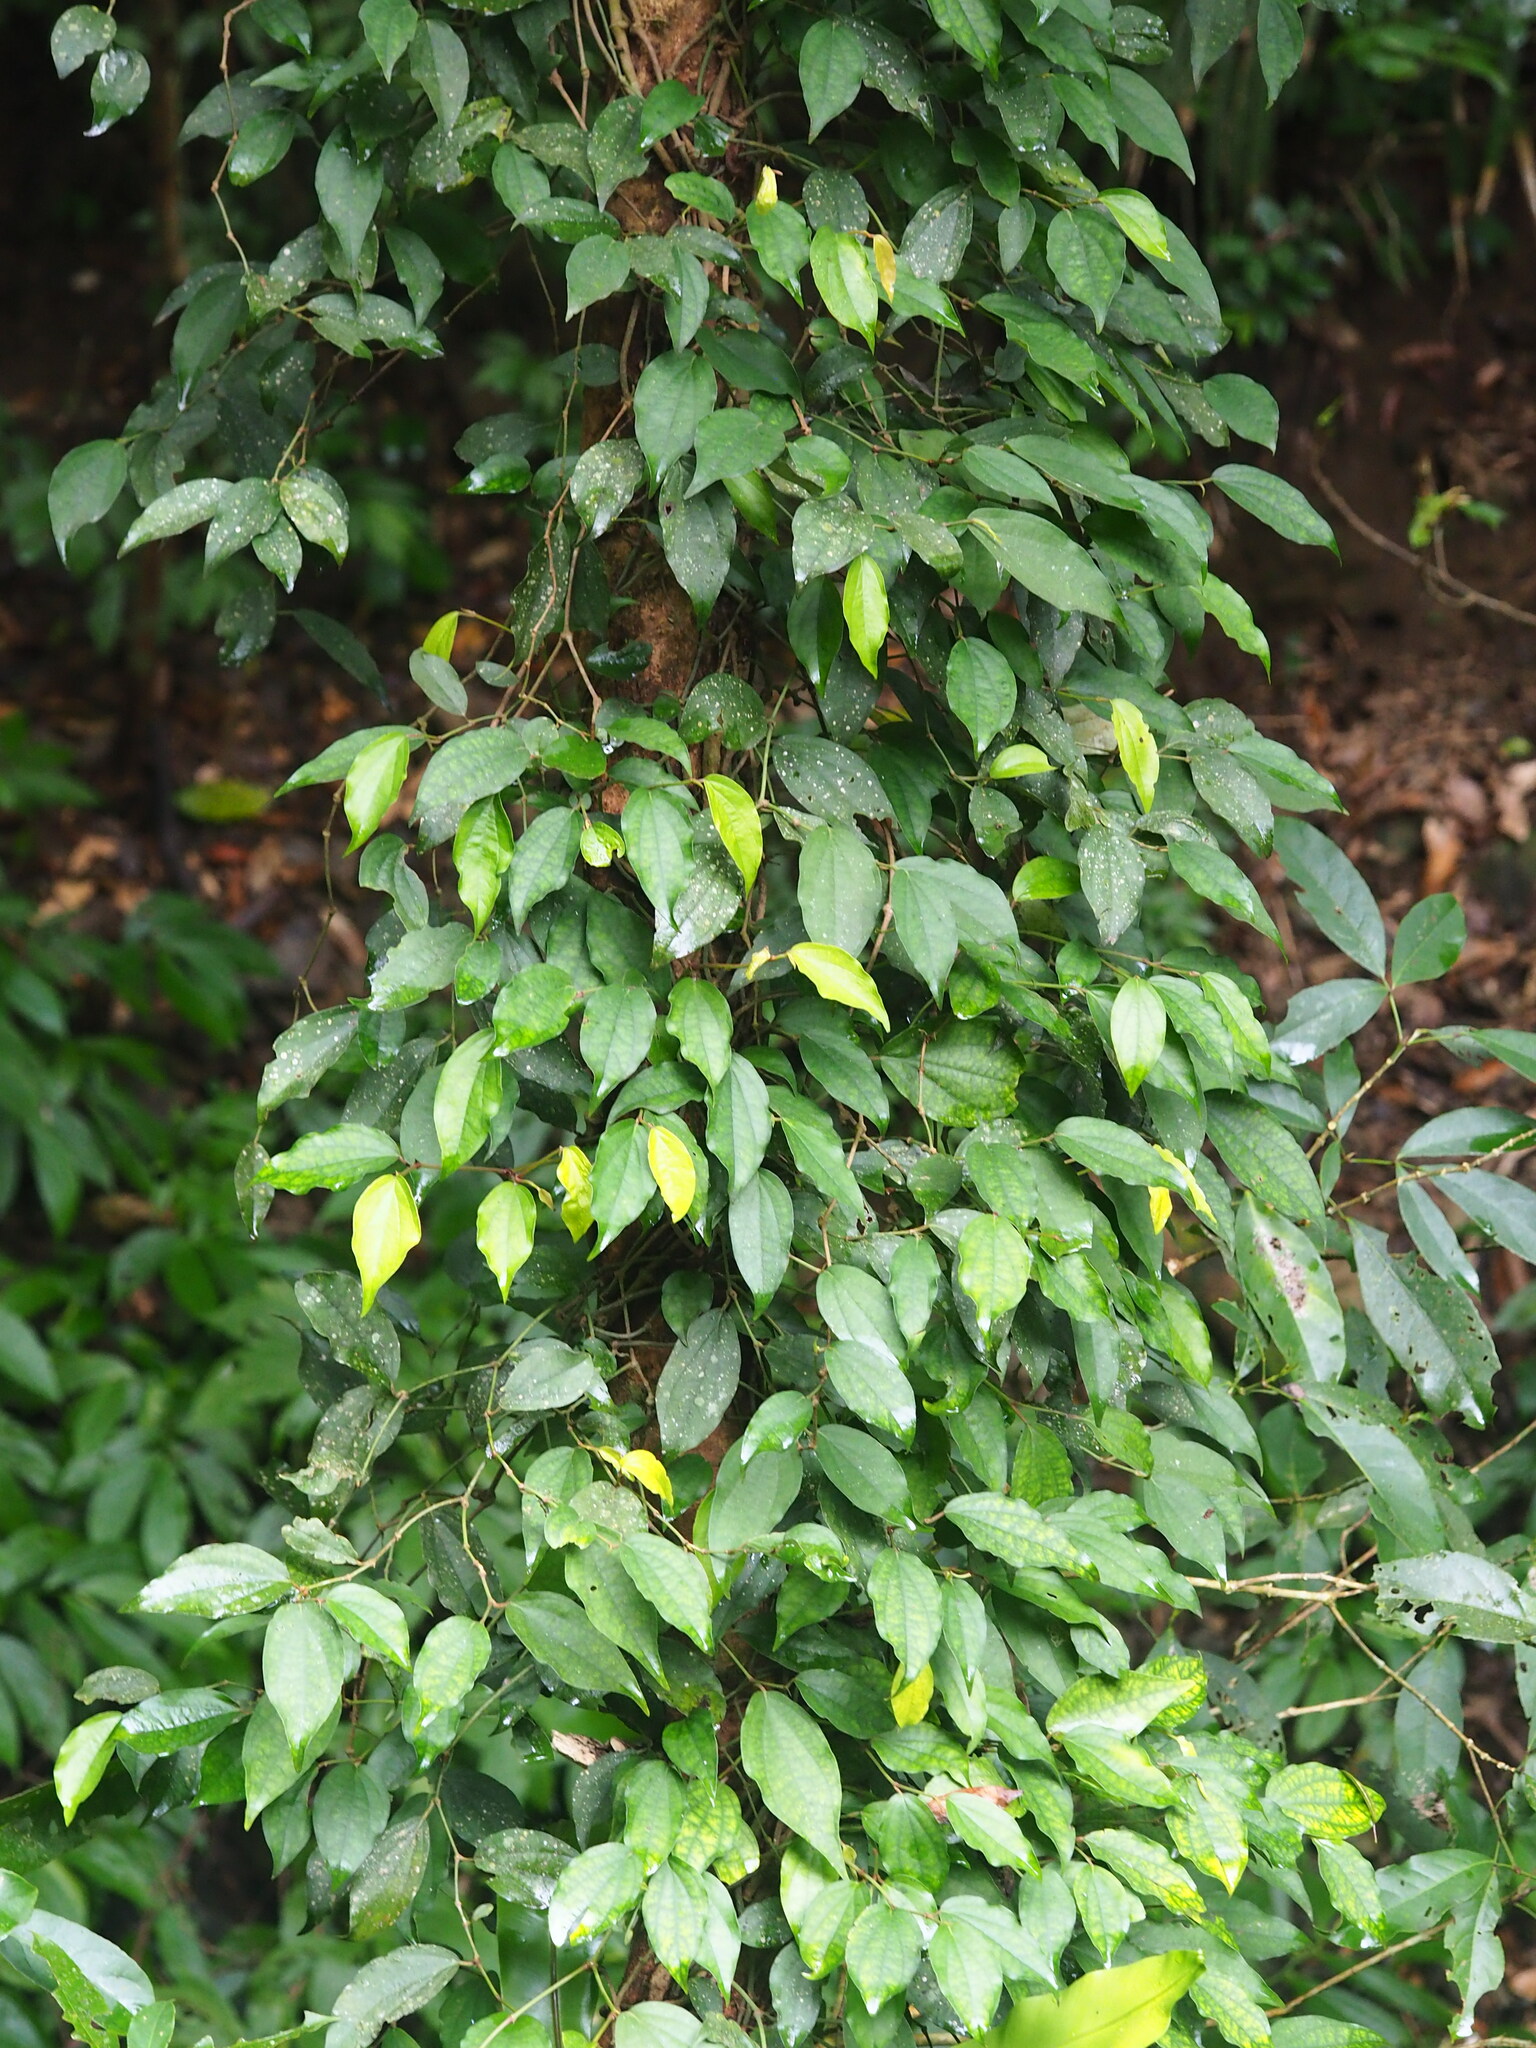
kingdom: Plantae
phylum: Tracheophyta
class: Magnoliopsida
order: Piperales
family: Piperaceae
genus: Piper
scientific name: Piper kadsura
